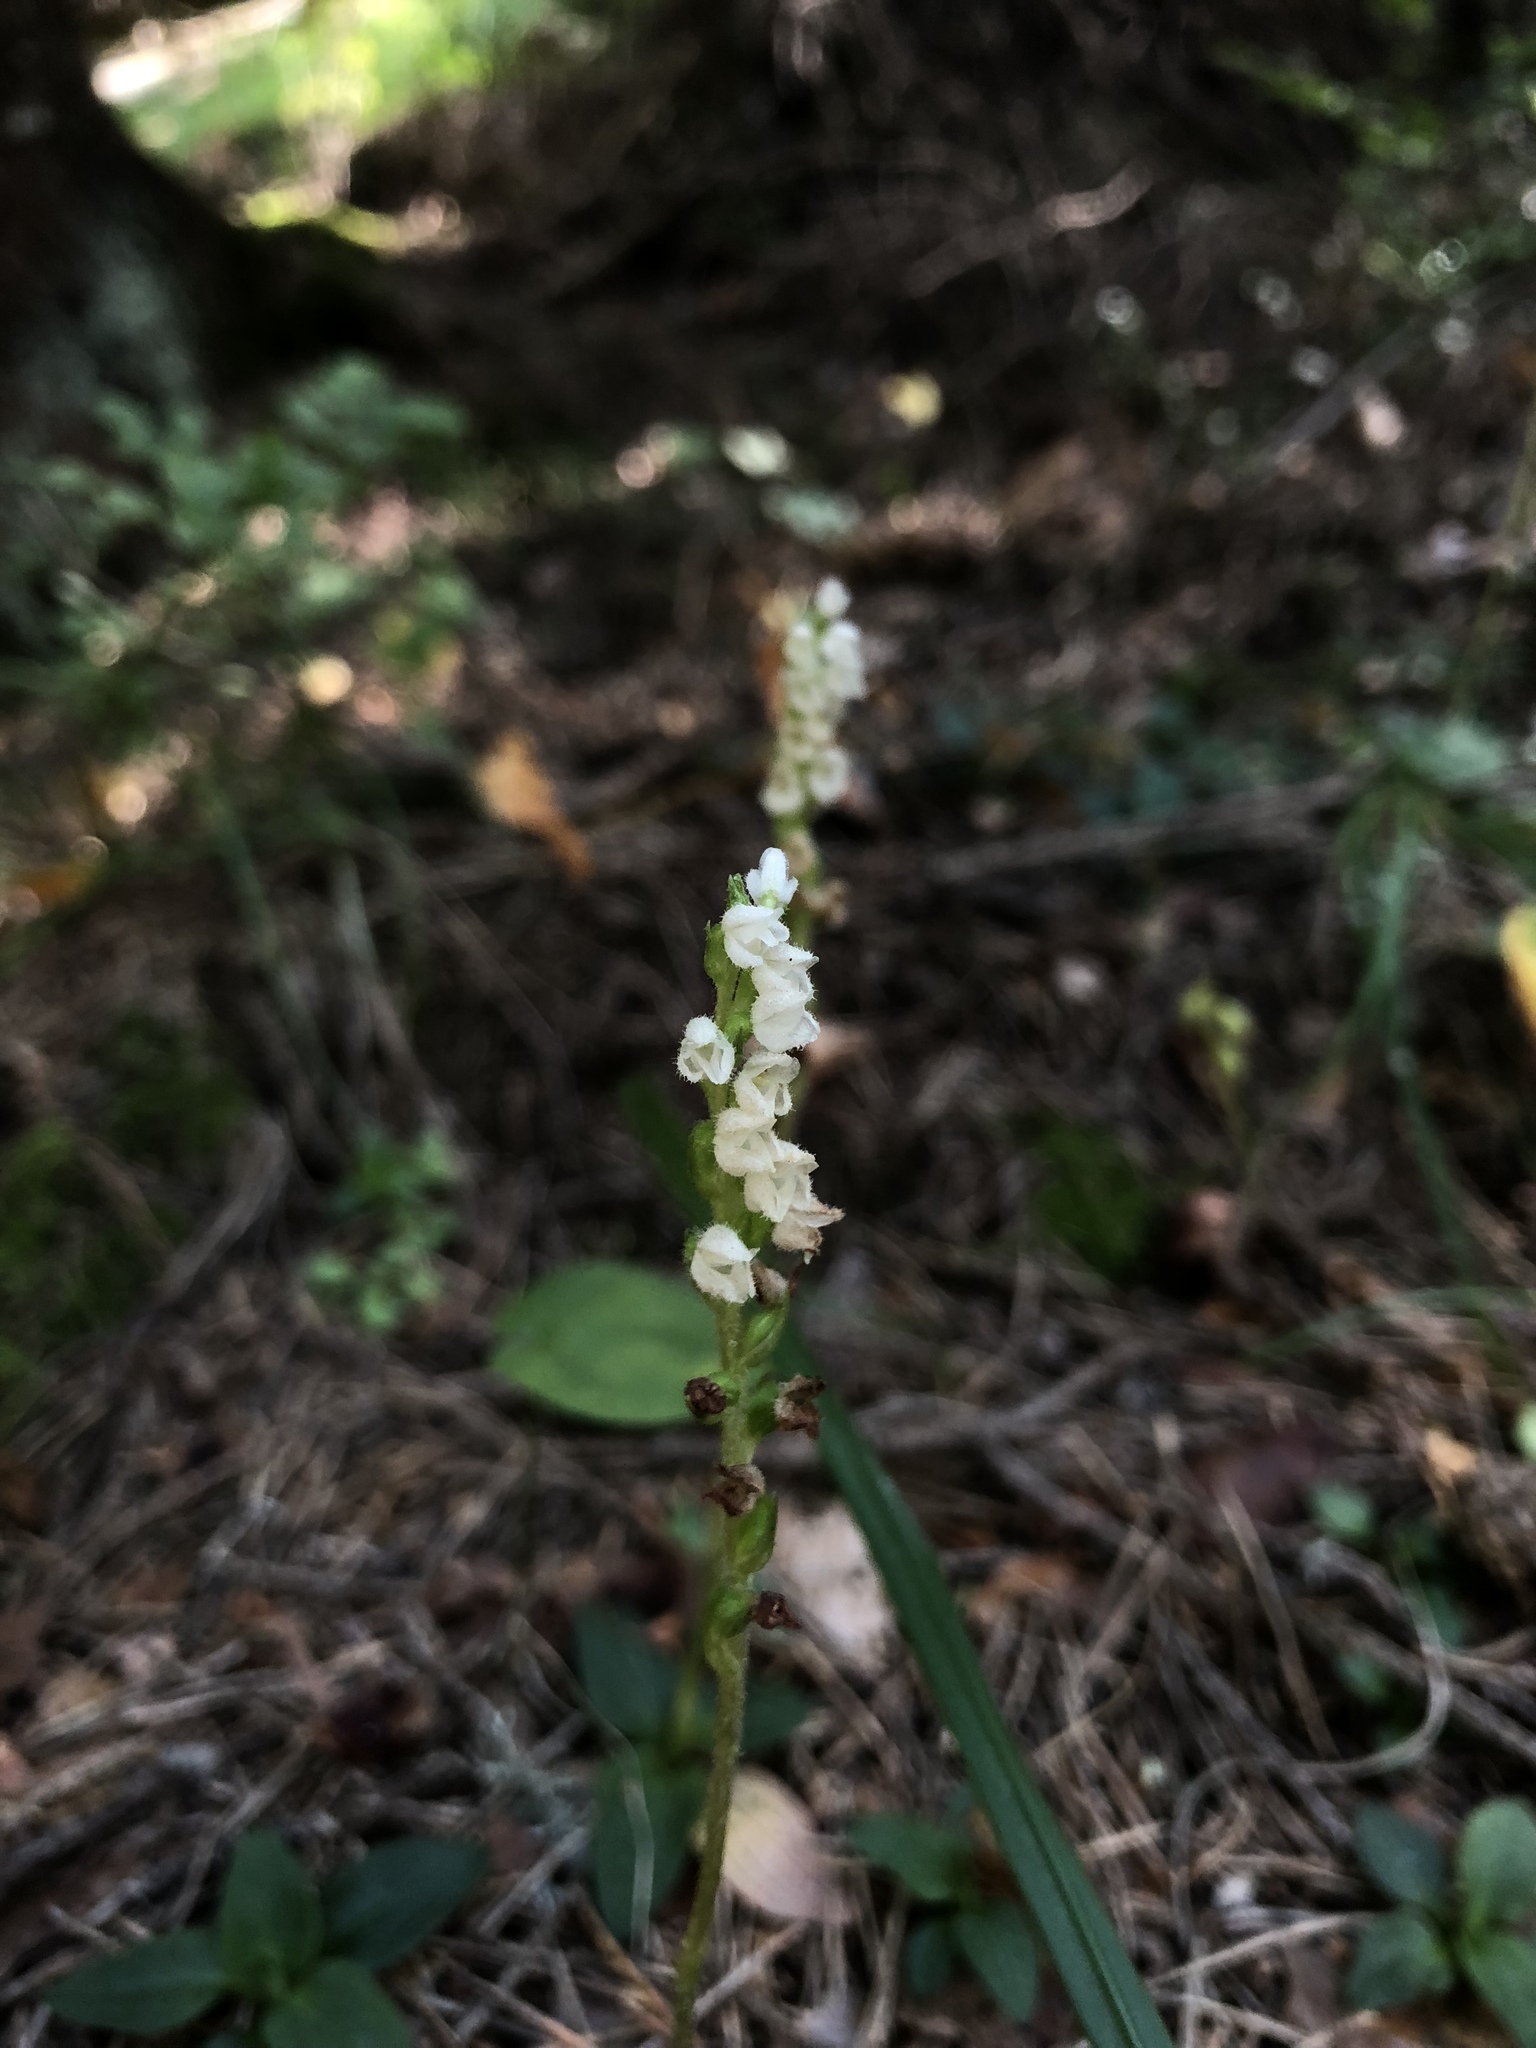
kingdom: Plantae
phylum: Tracheophyta
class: Liliopsida
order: Asparagales
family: Orchidaceae
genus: Goodyera
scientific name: Goodyera repens
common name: Creeping lady's-tresses
